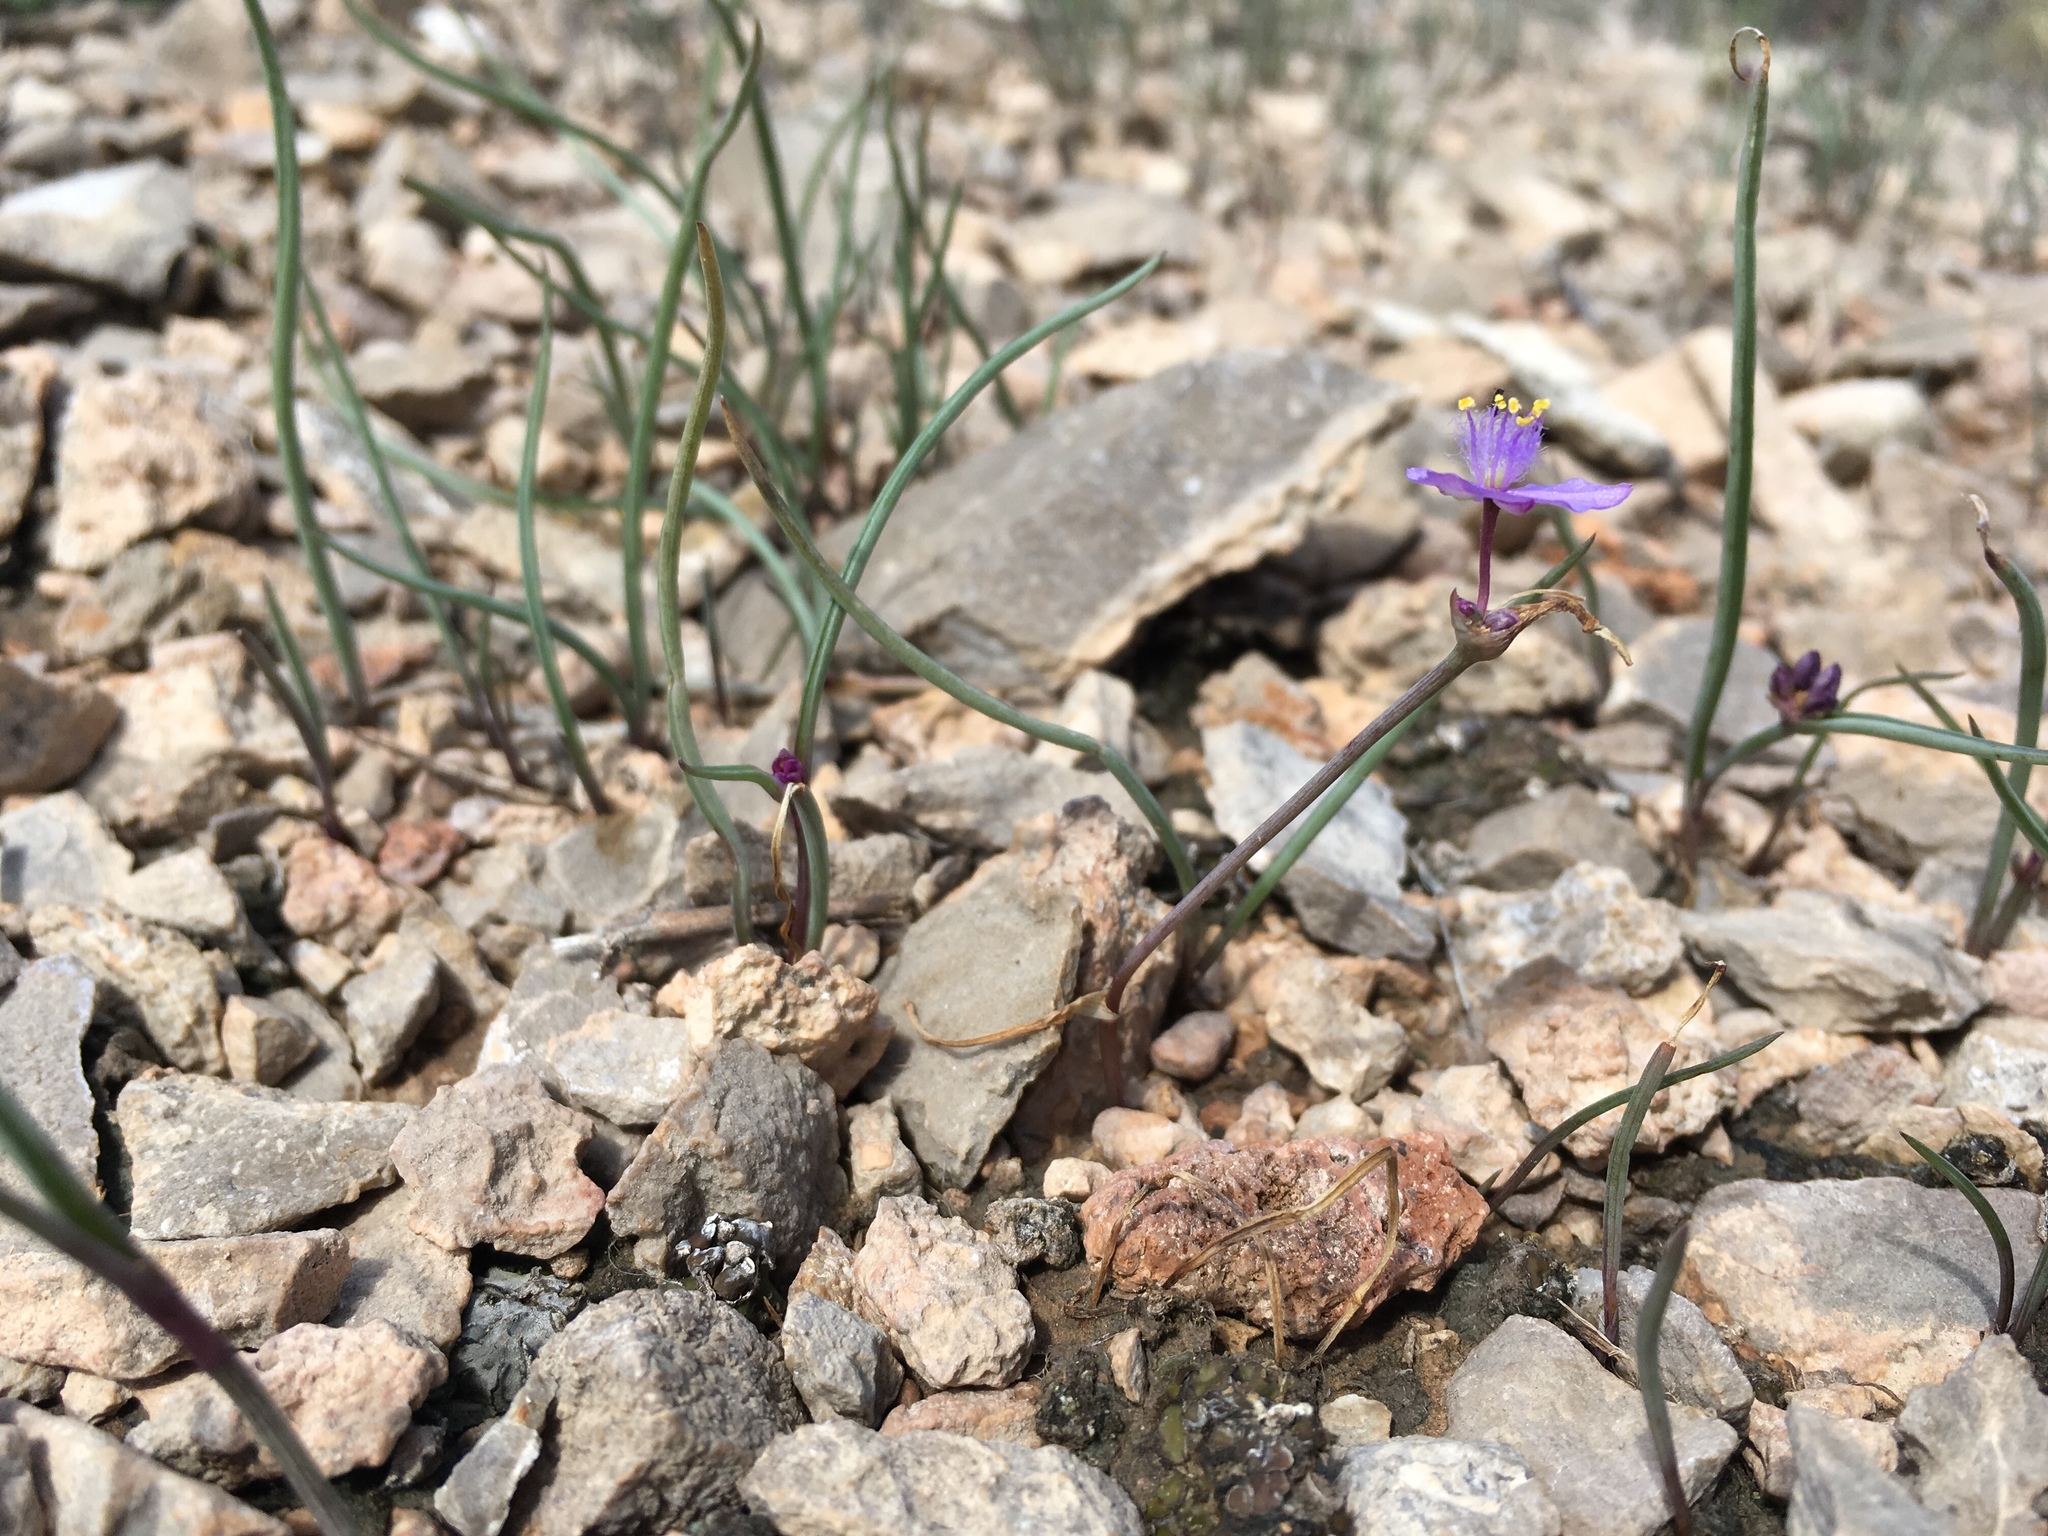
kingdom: Plantae
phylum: Tracheophyta
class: Liliopsida
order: Commelinales
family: Commelinaceae
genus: Tradescantia
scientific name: Tradescantia wrightii
